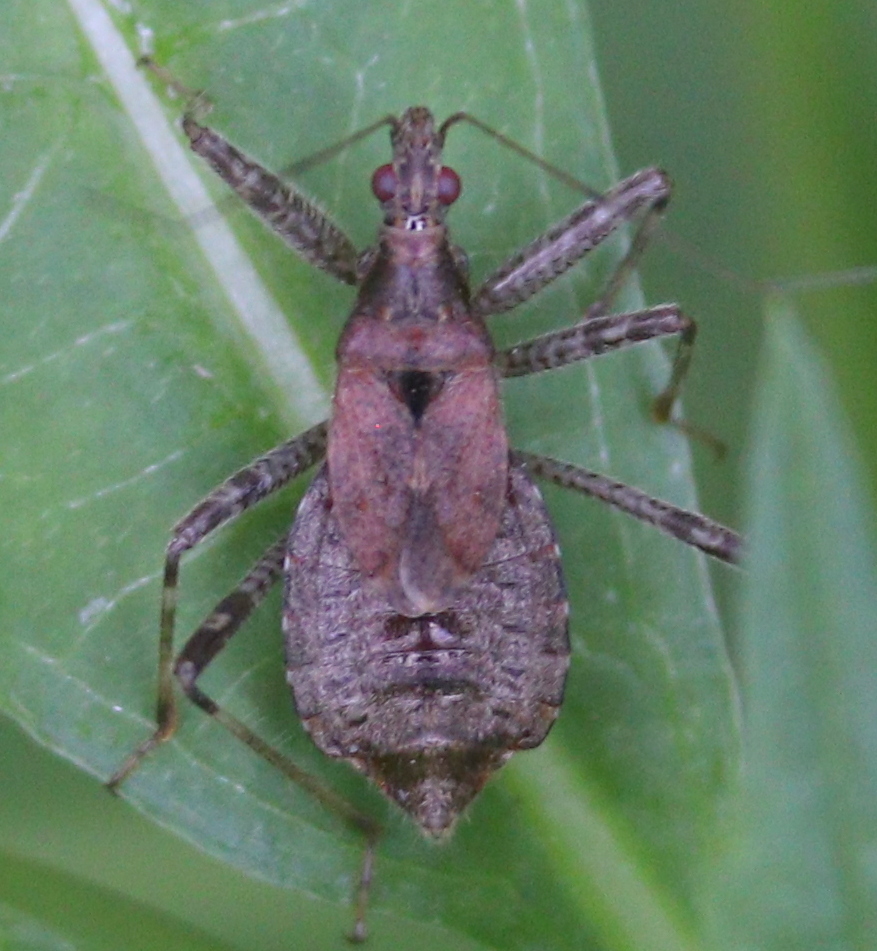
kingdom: Animalia
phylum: Arthropoda
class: Insecta
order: Hemiptera
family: Nabidae
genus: Himacerus
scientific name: Himacerus apterus
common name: Tree damsel bug
